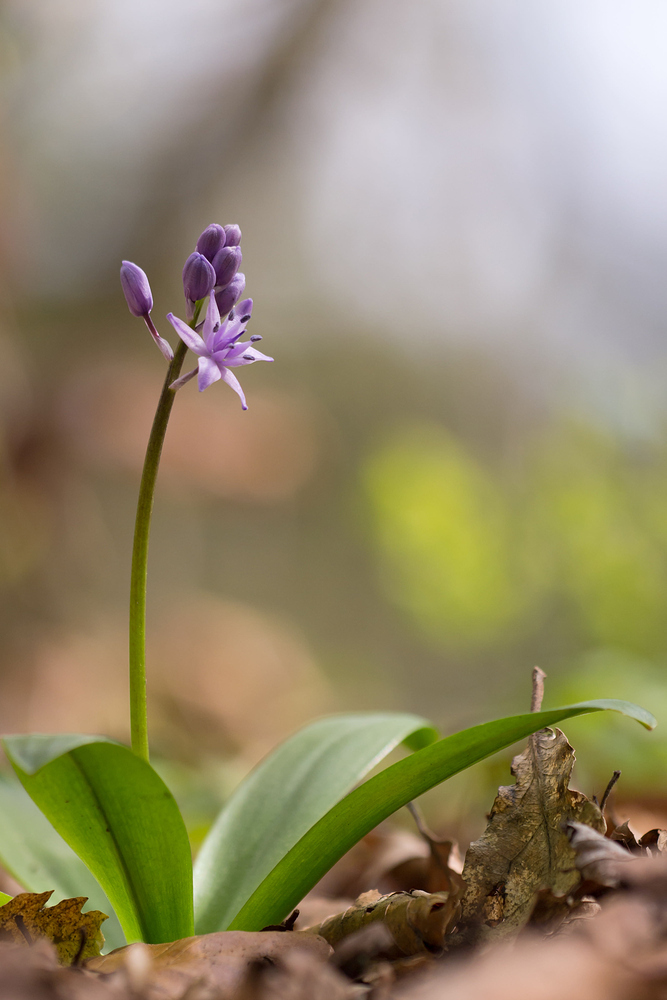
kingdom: Plantae
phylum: Tracheophyta
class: Liliopsida
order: Asparagales
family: Asparagaceae
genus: Scilla
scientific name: Scilla lilio-hyacinthus
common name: Pyrenean squill
